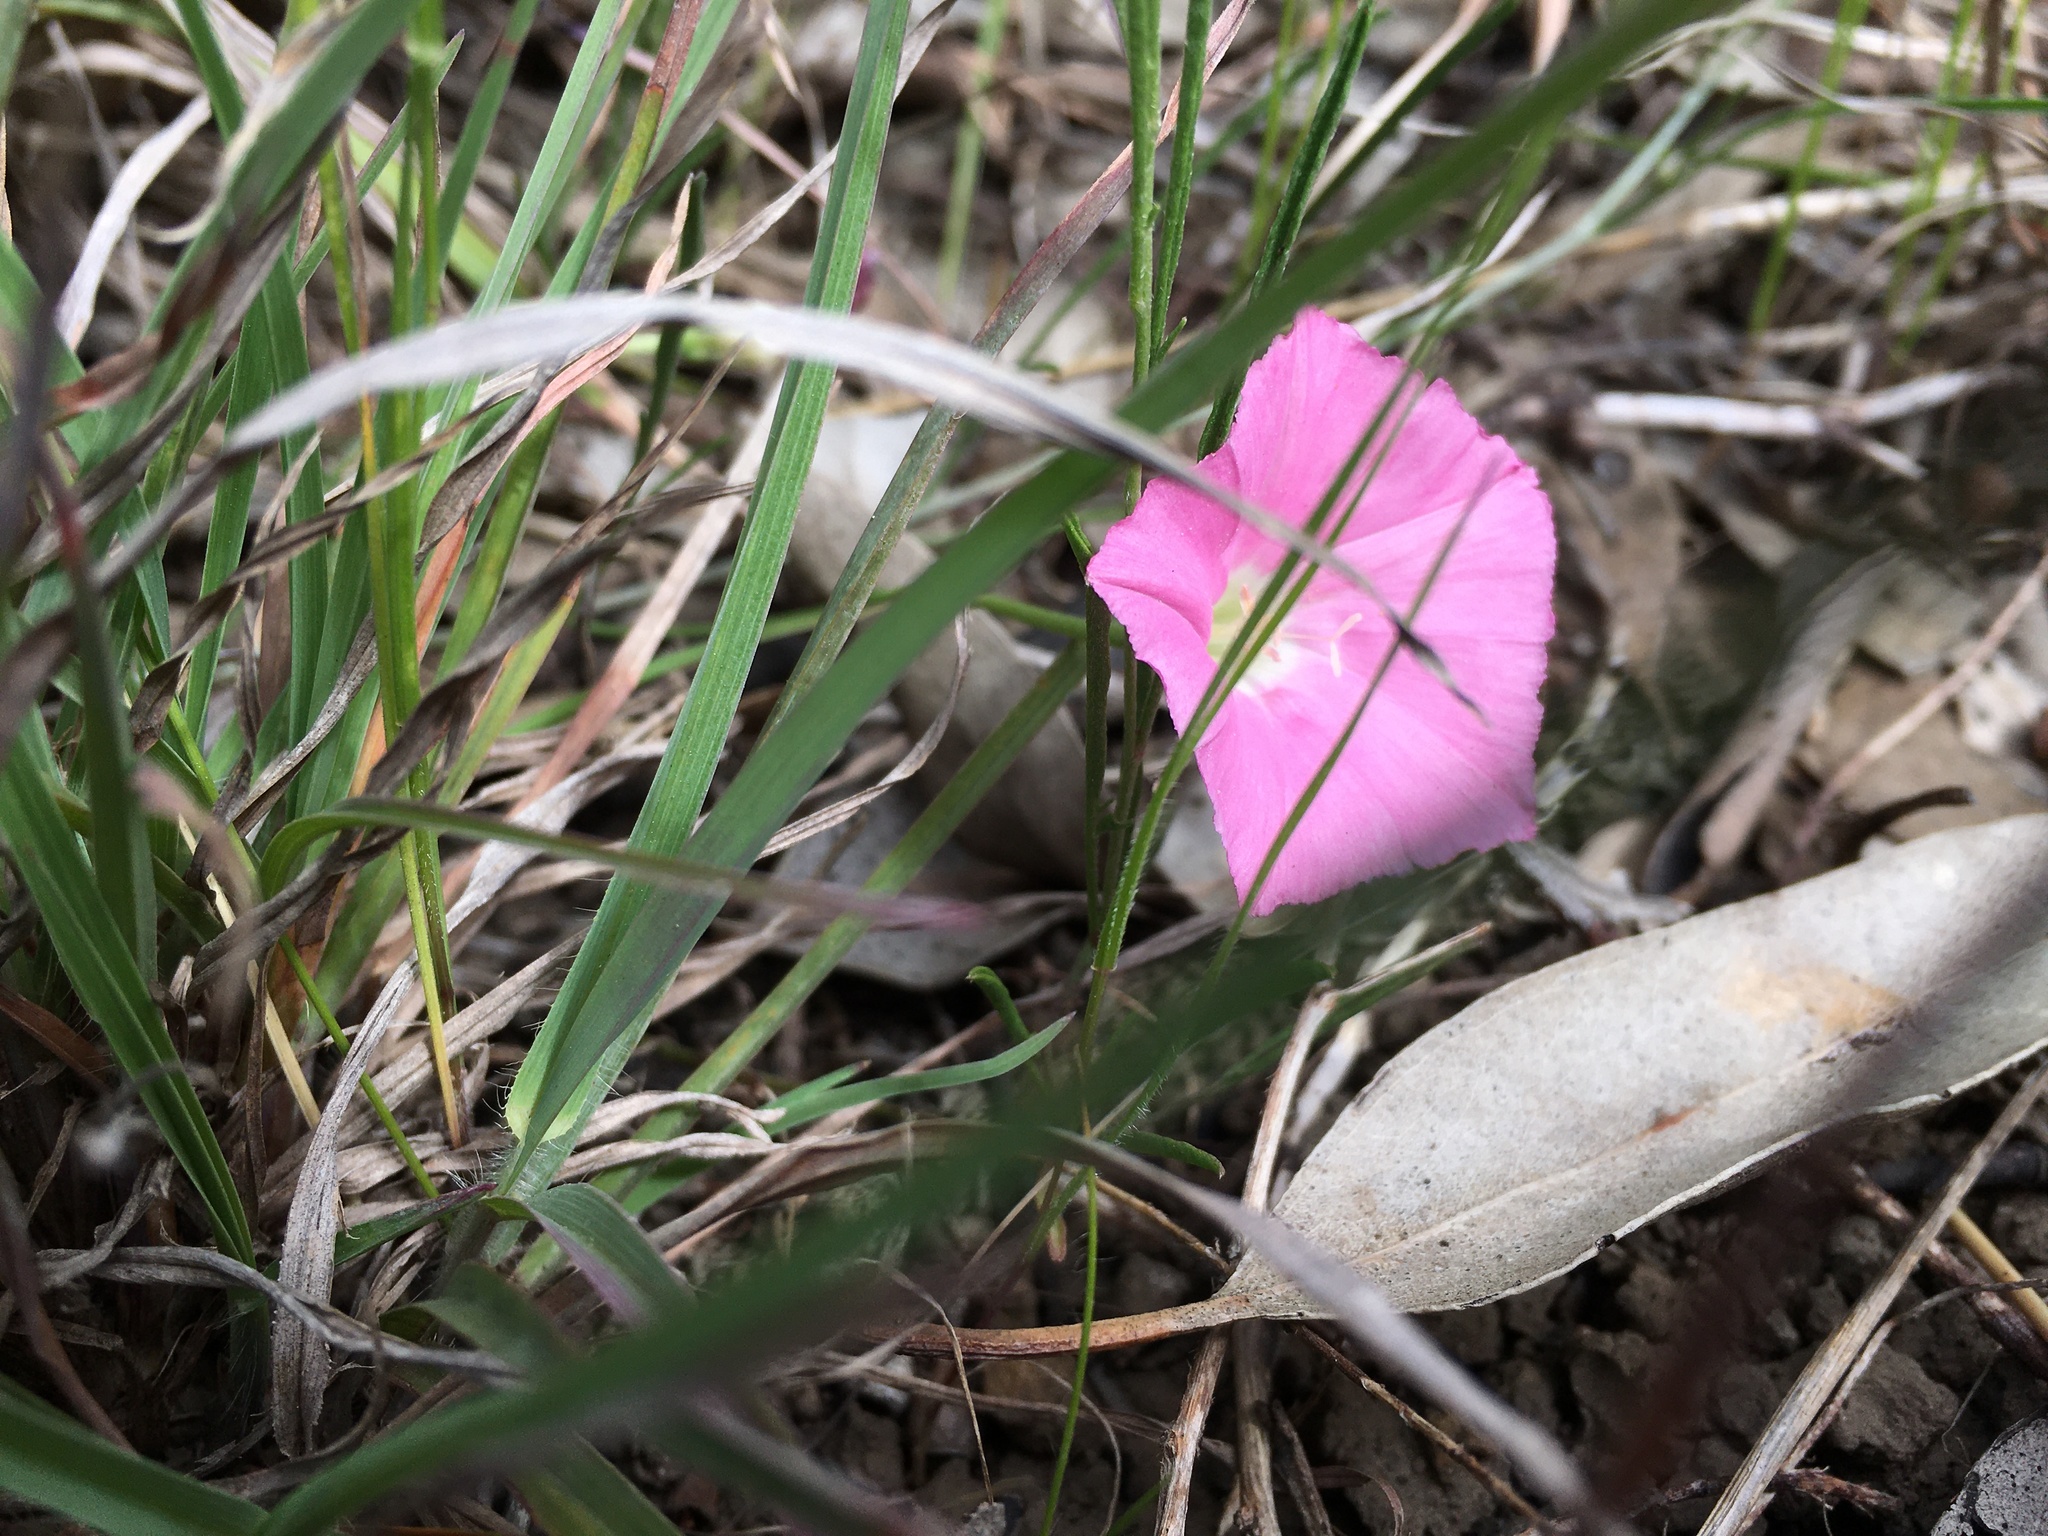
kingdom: Plantae
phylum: Tracheophyta
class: Magnoliopsida
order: Solanales
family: Convolvulaceae
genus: Convolvulus
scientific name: Convolvulus angustissimus
